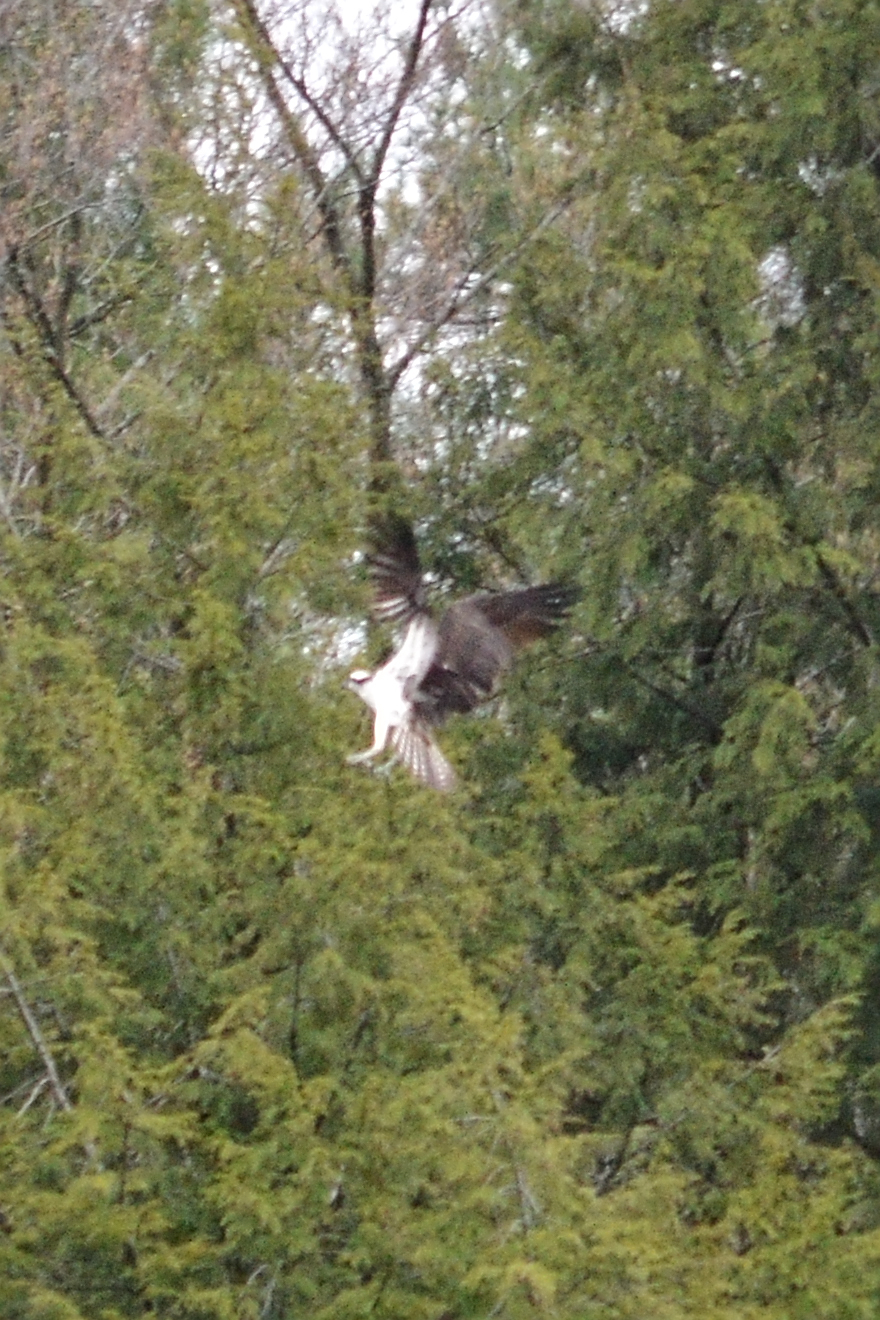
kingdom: Animalia
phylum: Chordata
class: Aves
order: Accipitriformes
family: Pandionidae
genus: Pandion
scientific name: Pandion haliaetus
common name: Osprey
